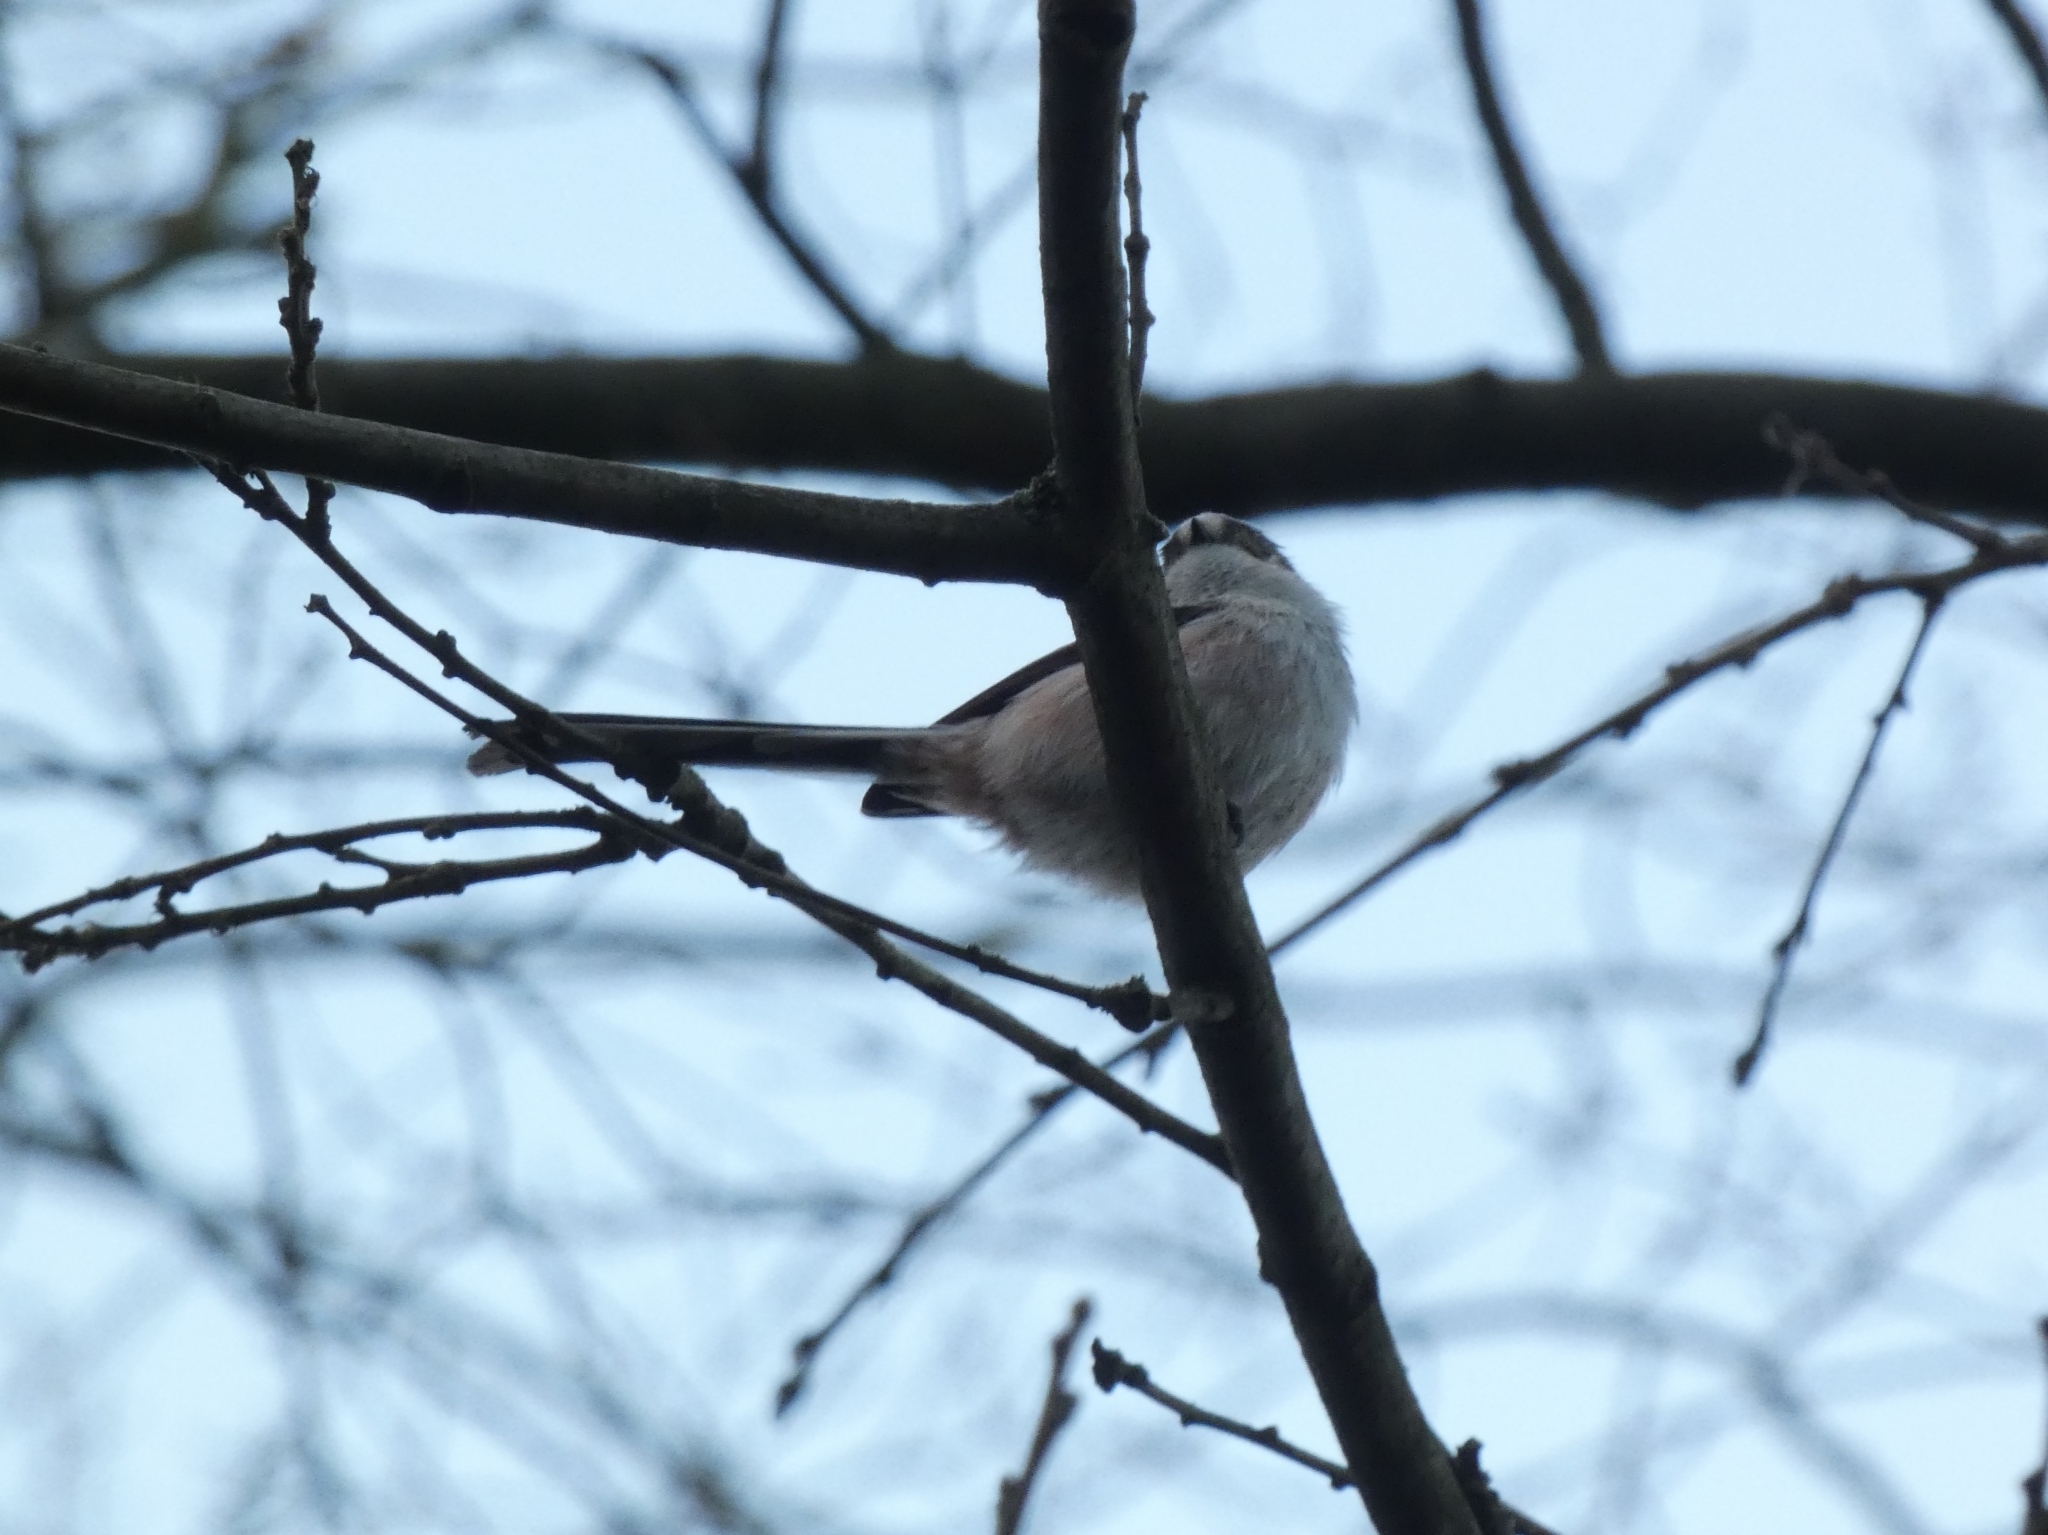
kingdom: Animalia
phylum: Chordata
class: Aves
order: Passeriformes
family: Aegithalidae
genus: Aegithalos
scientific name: Aegithalos caudatus
